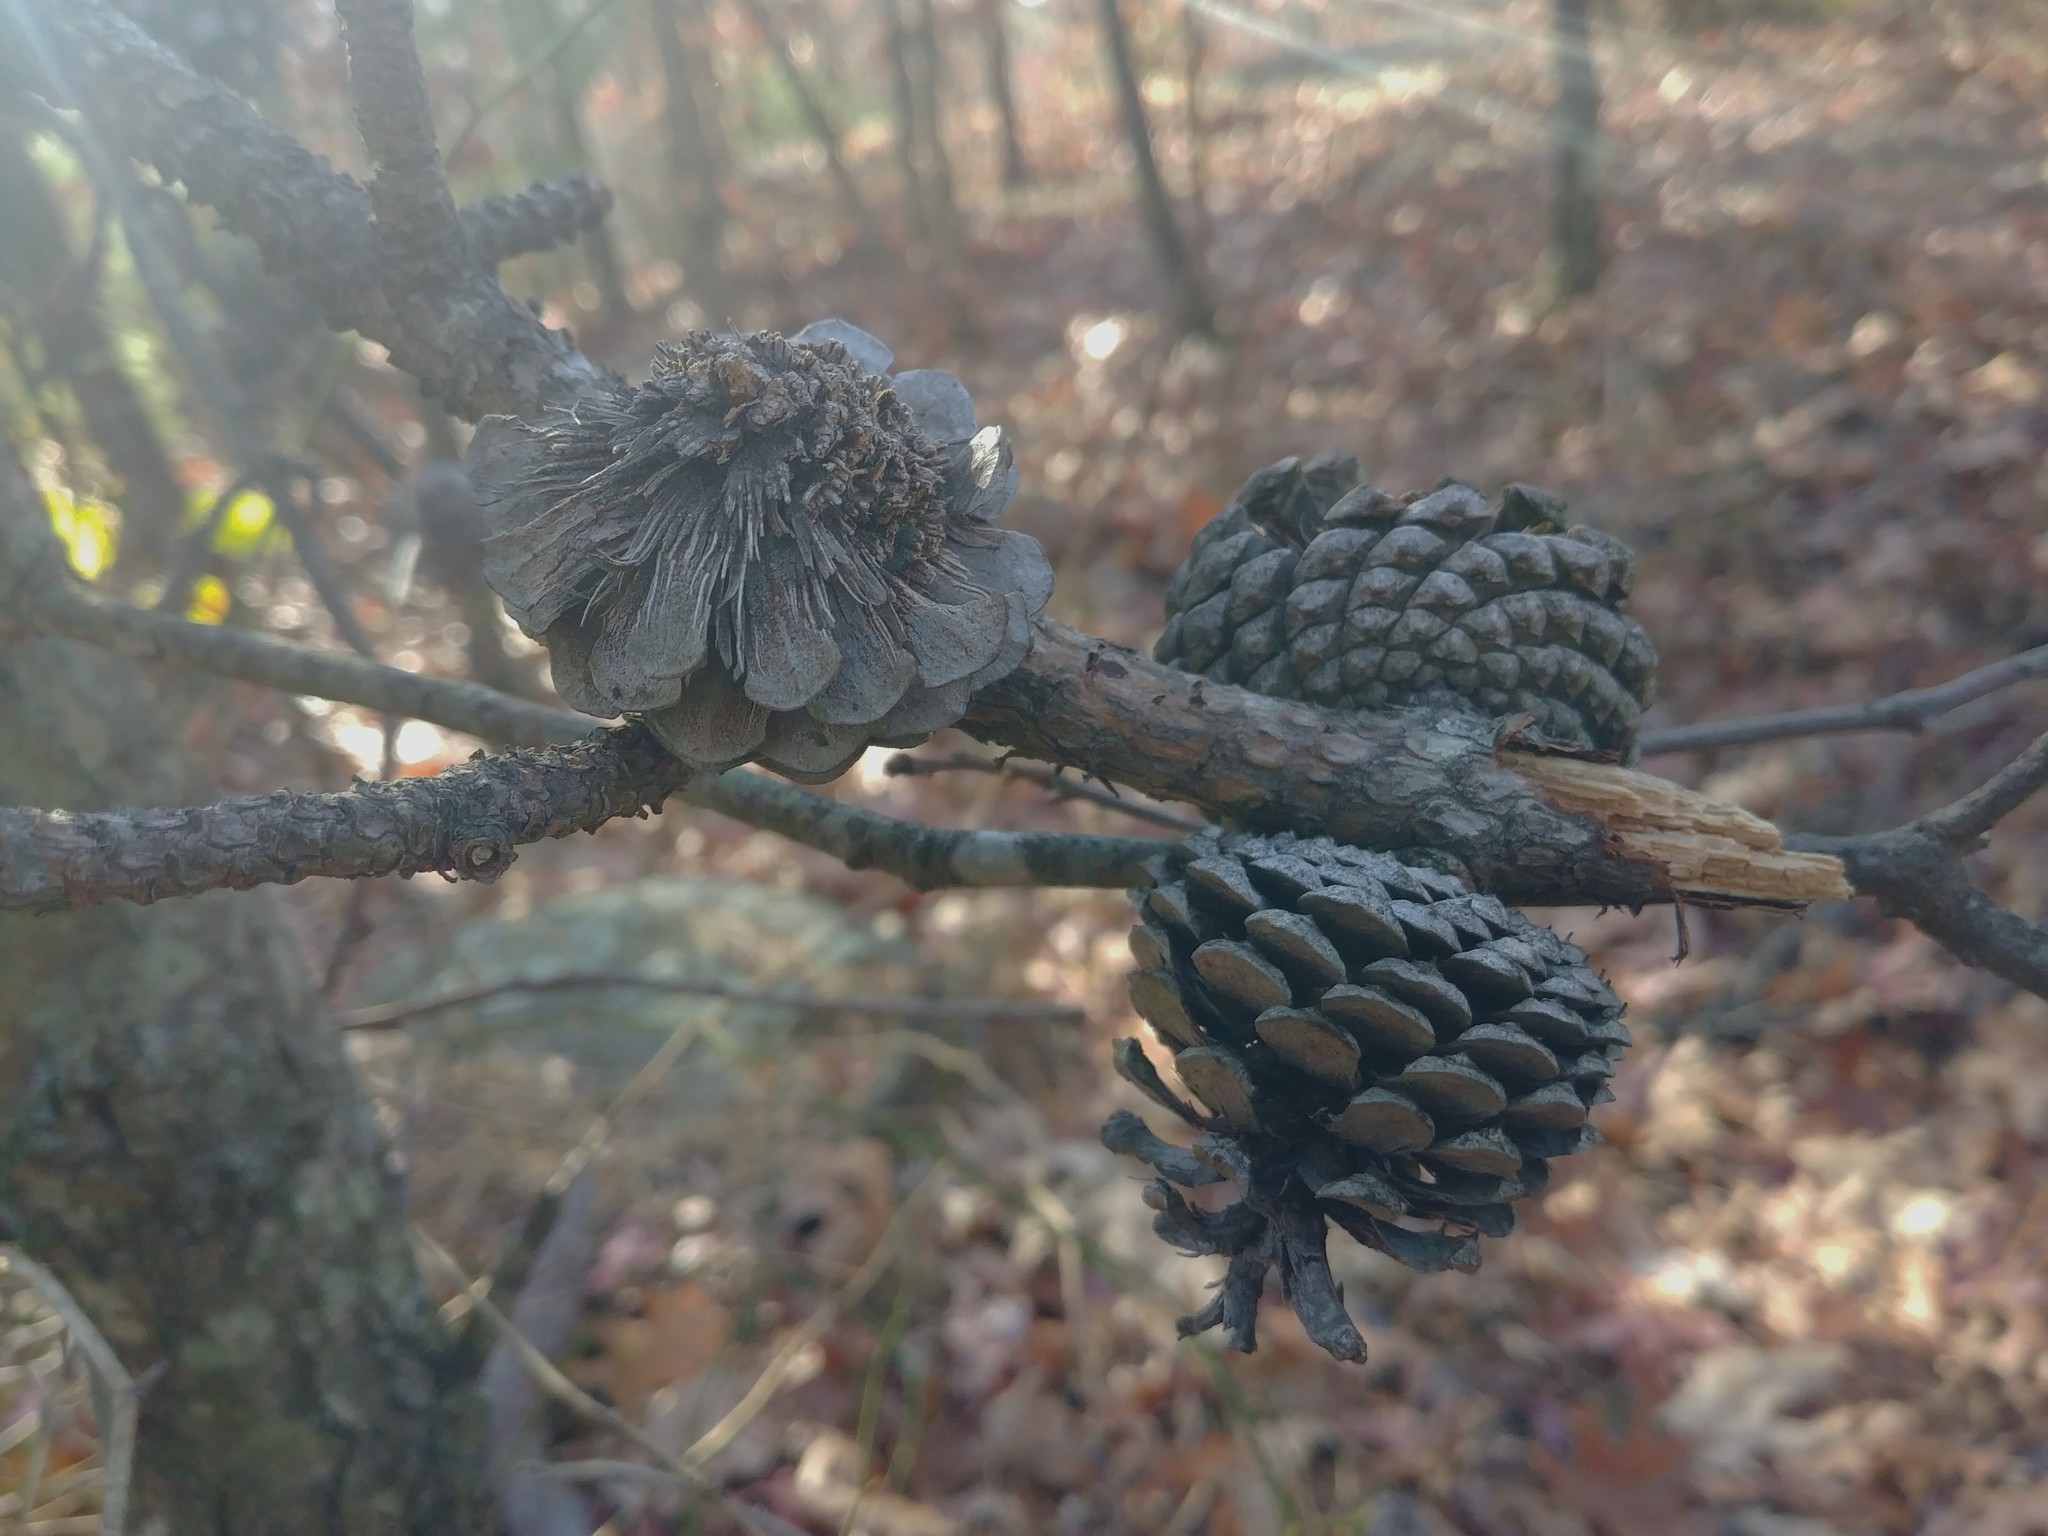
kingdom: Plantae
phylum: Tracheophyta
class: Pinopsida
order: Pinales
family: Pinaceae
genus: Pinus
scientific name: Pinus rigida
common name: Pitch pine
